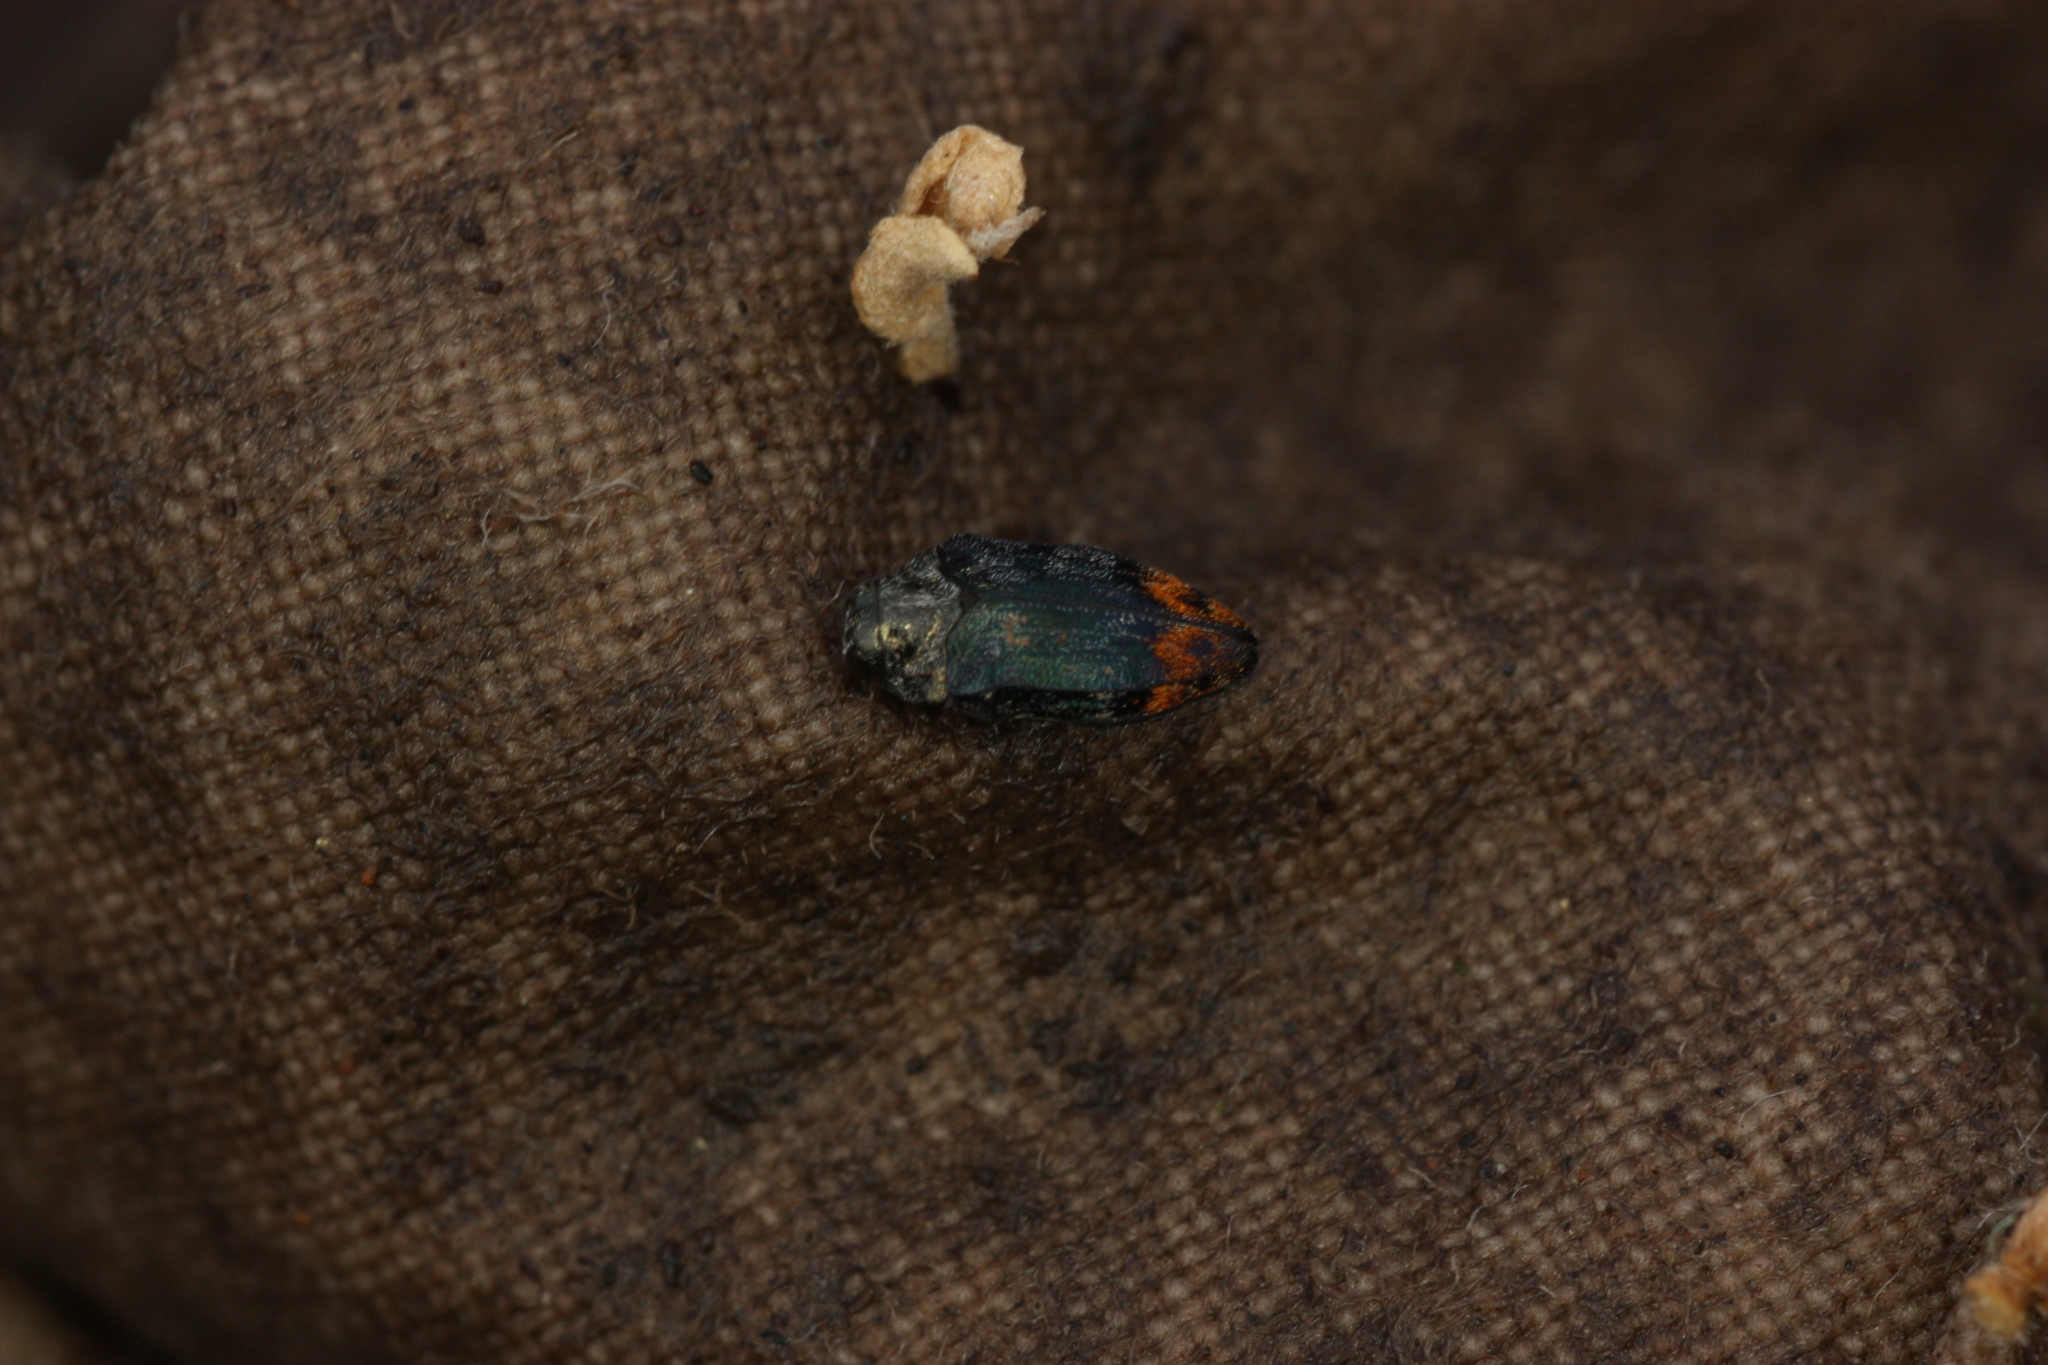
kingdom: Animalia
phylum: Arthropoda
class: Insecta
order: Coleoptera
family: Buprestidae
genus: Brachys
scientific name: Brachys aerosus
